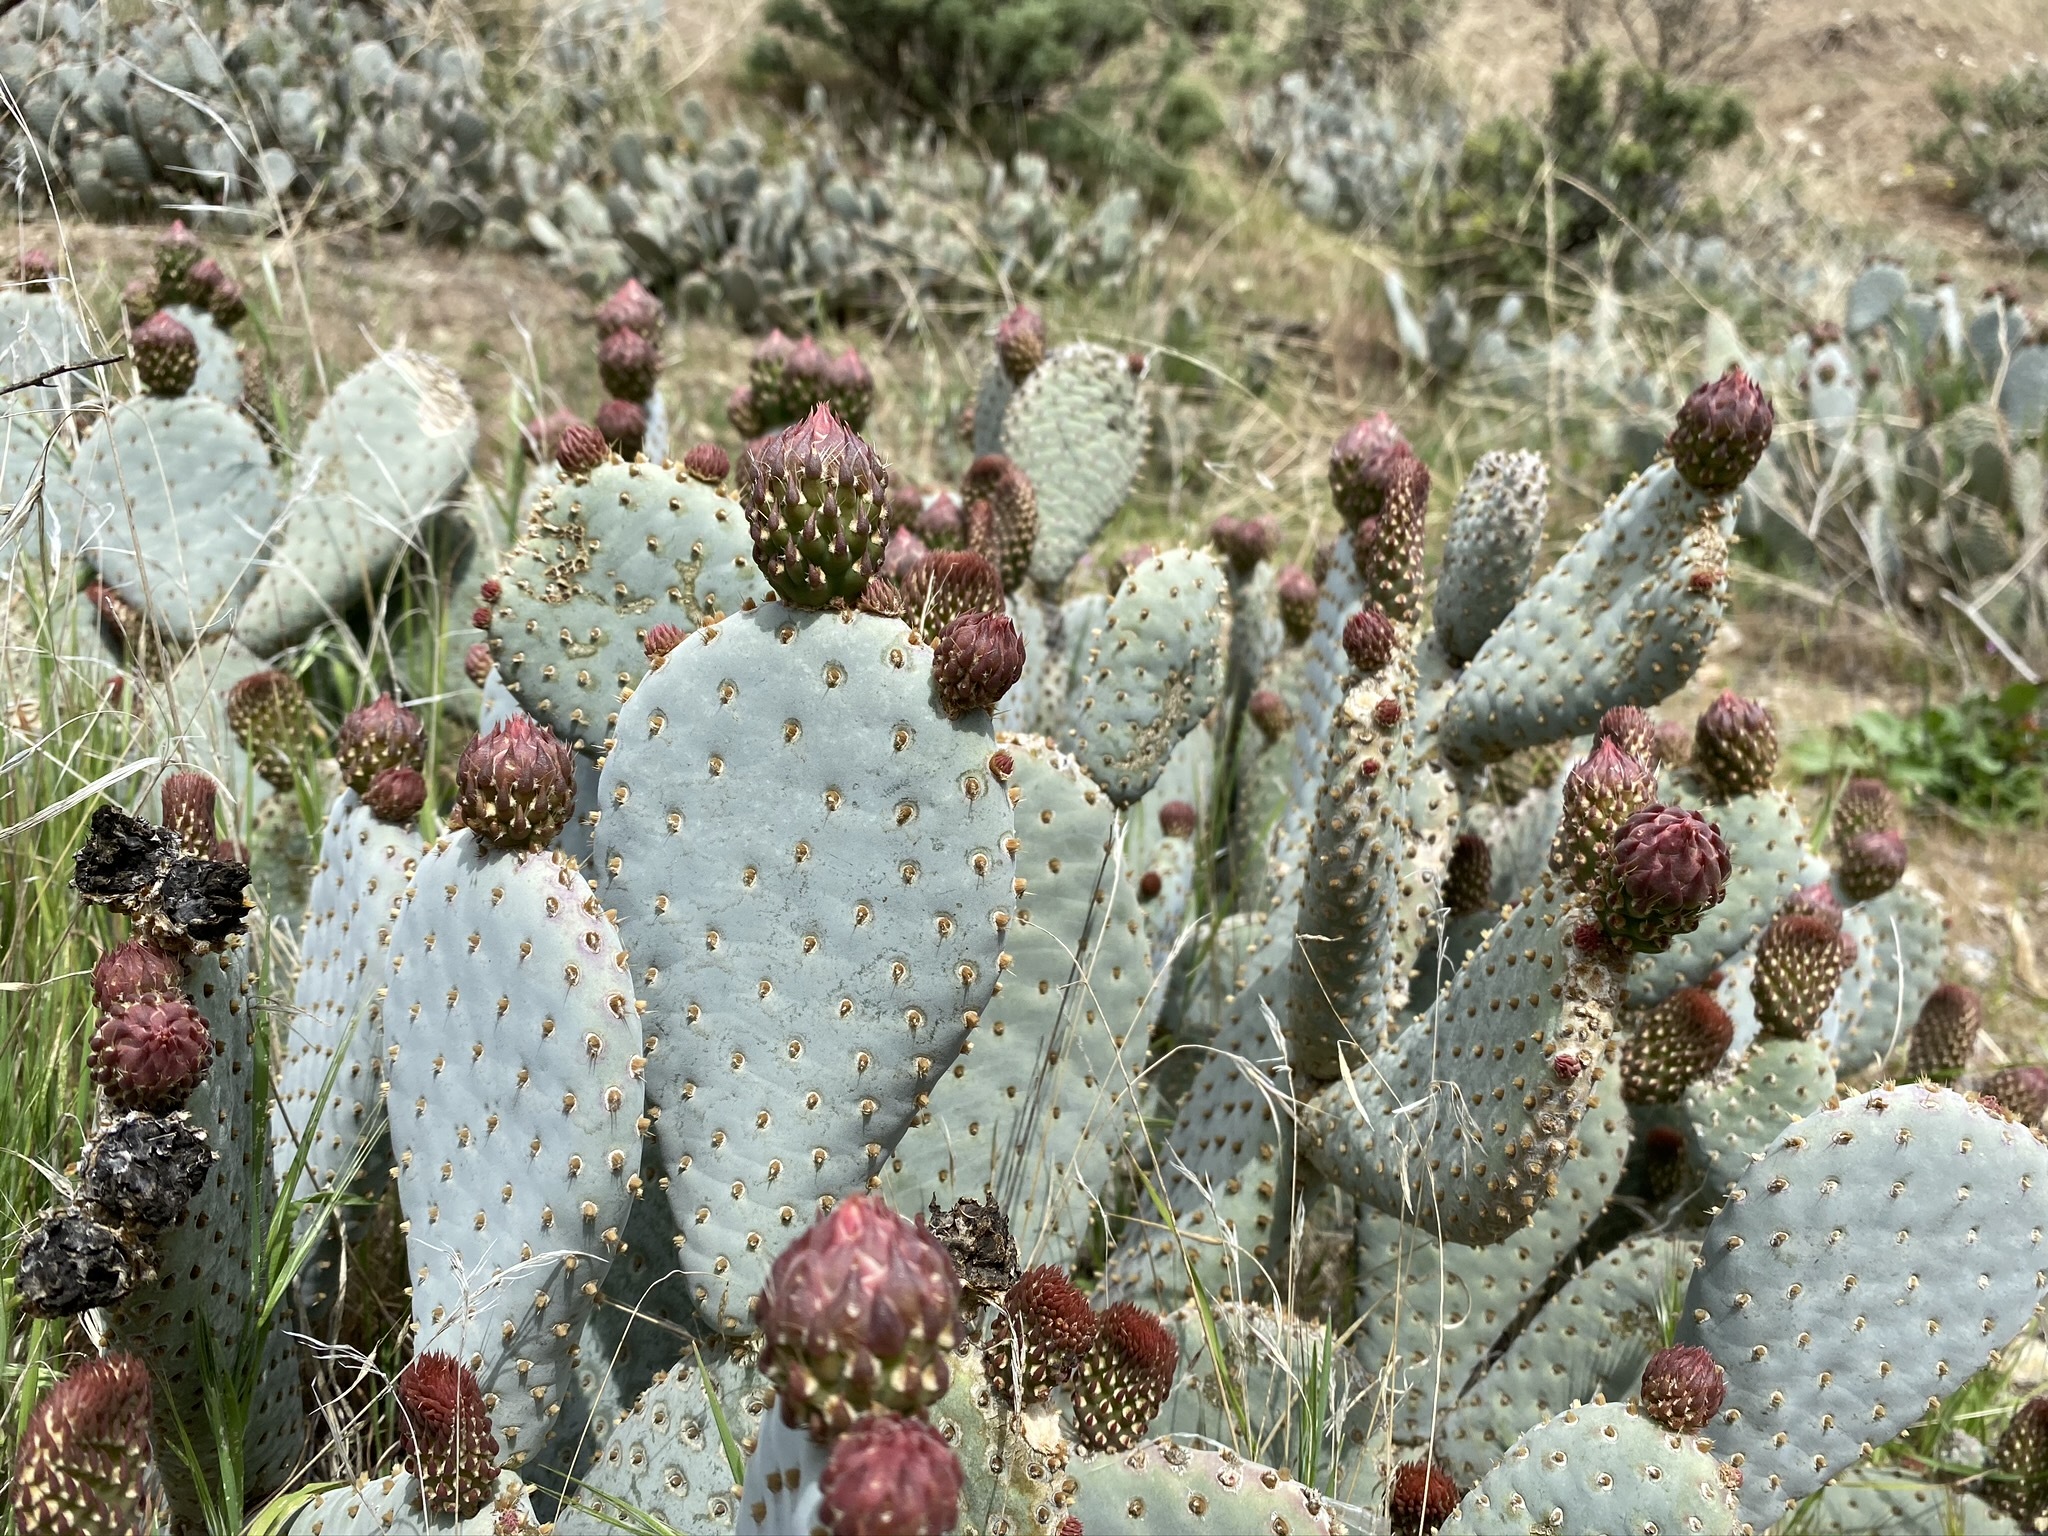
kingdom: Plantae
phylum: Tracheophyta
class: Magnoliopsida
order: Caryophyllales
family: Cactaceae
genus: Opuntia
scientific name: Opuntia basilaris
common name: Beavertail prickly-pear
